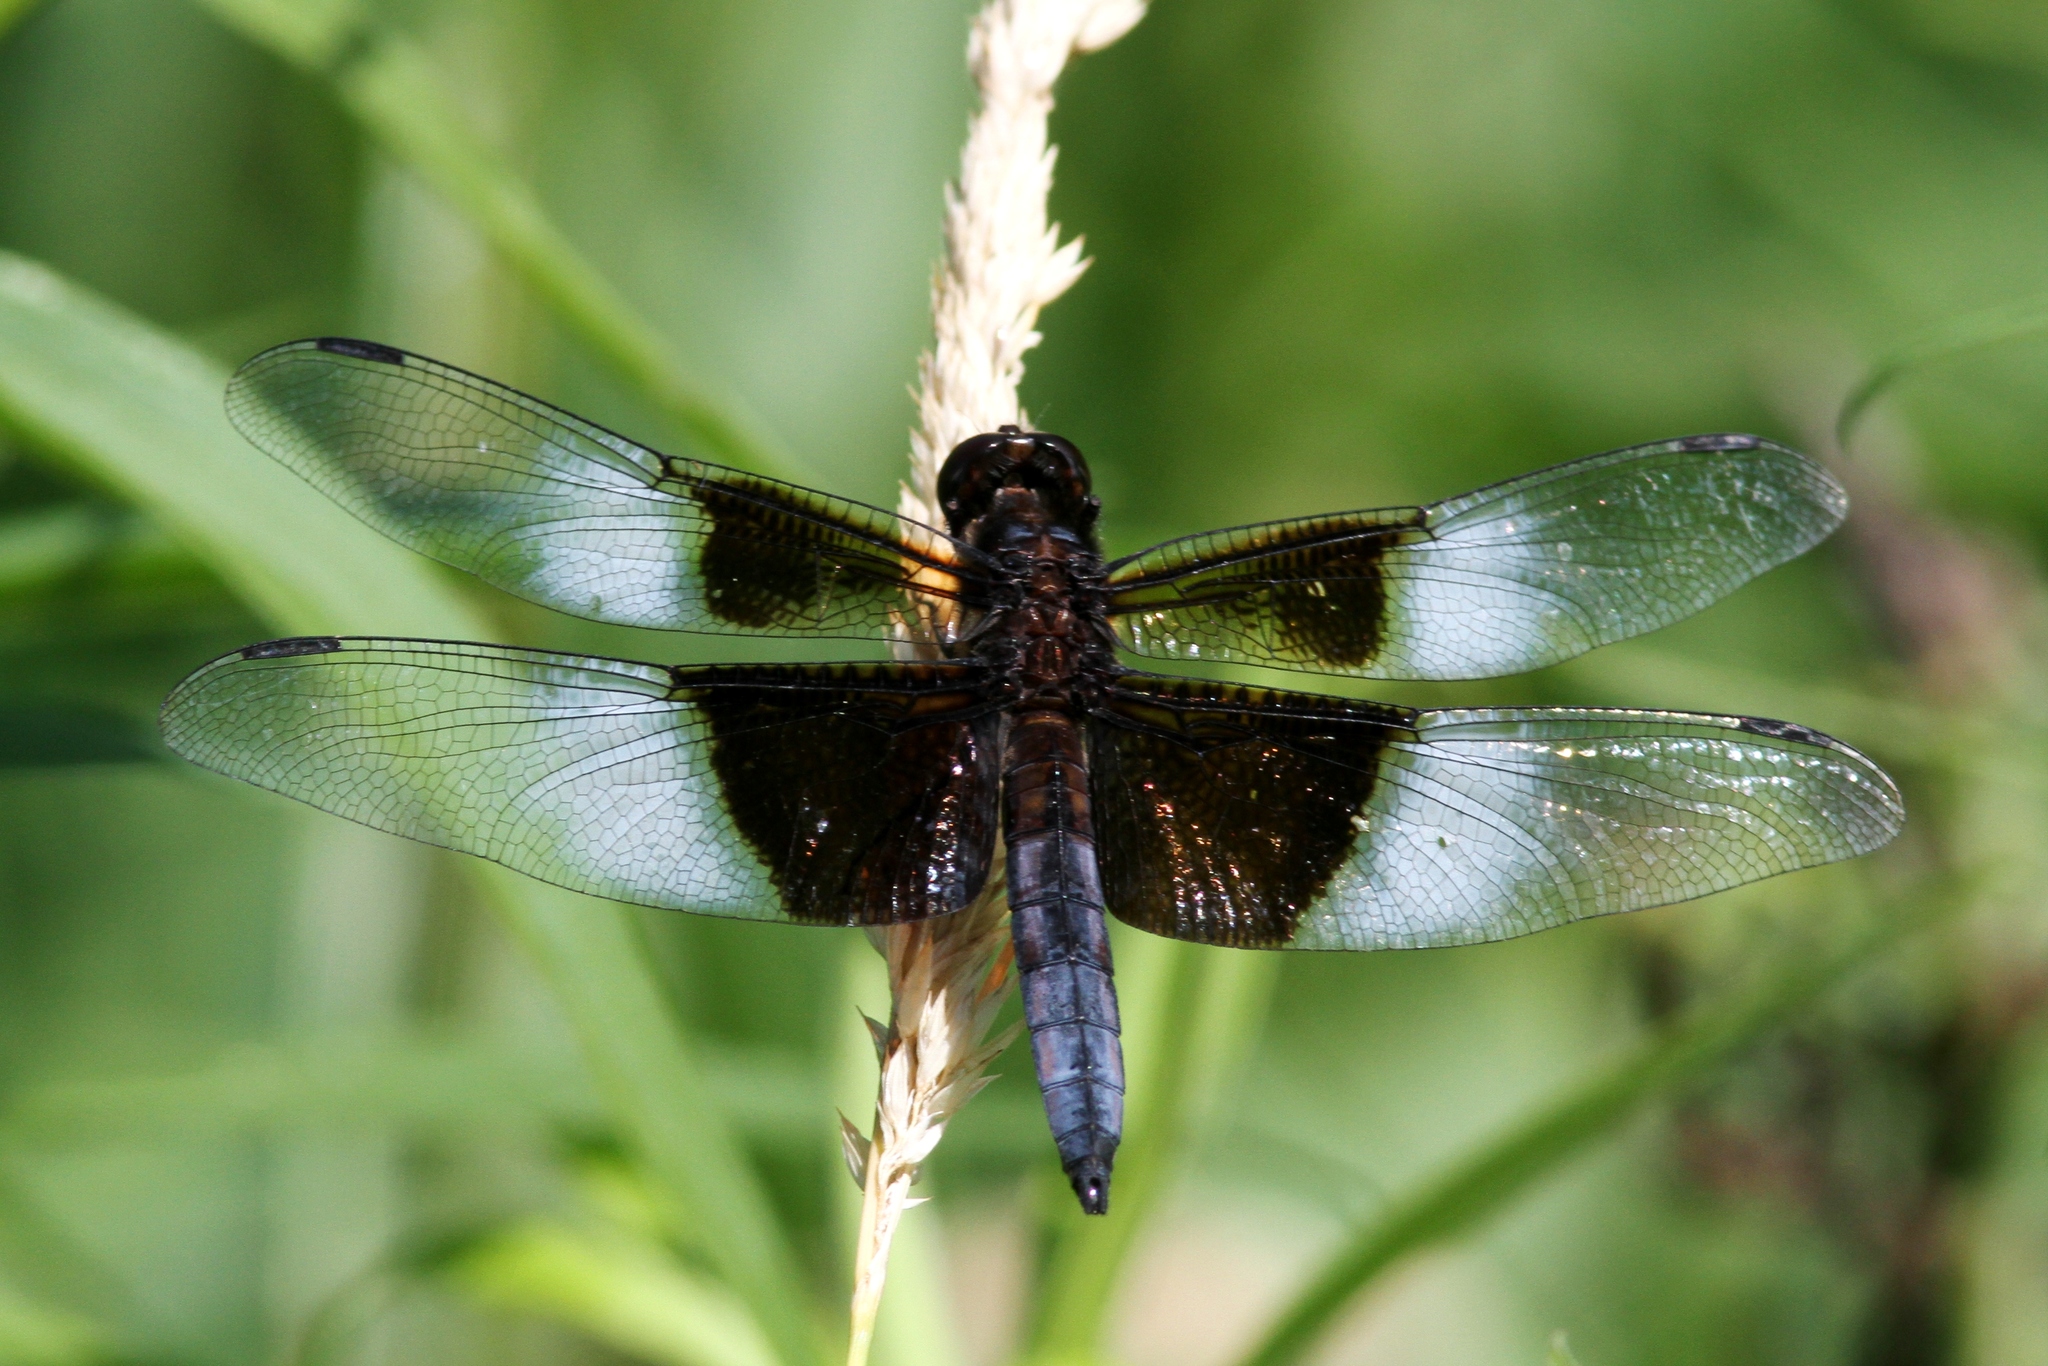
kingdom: Animalia
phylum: Arthropoda
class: Insecta
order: Odonata
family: Libellulidae
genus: Libellula
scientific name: Libellula luctuosa
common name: Widow skimmer
